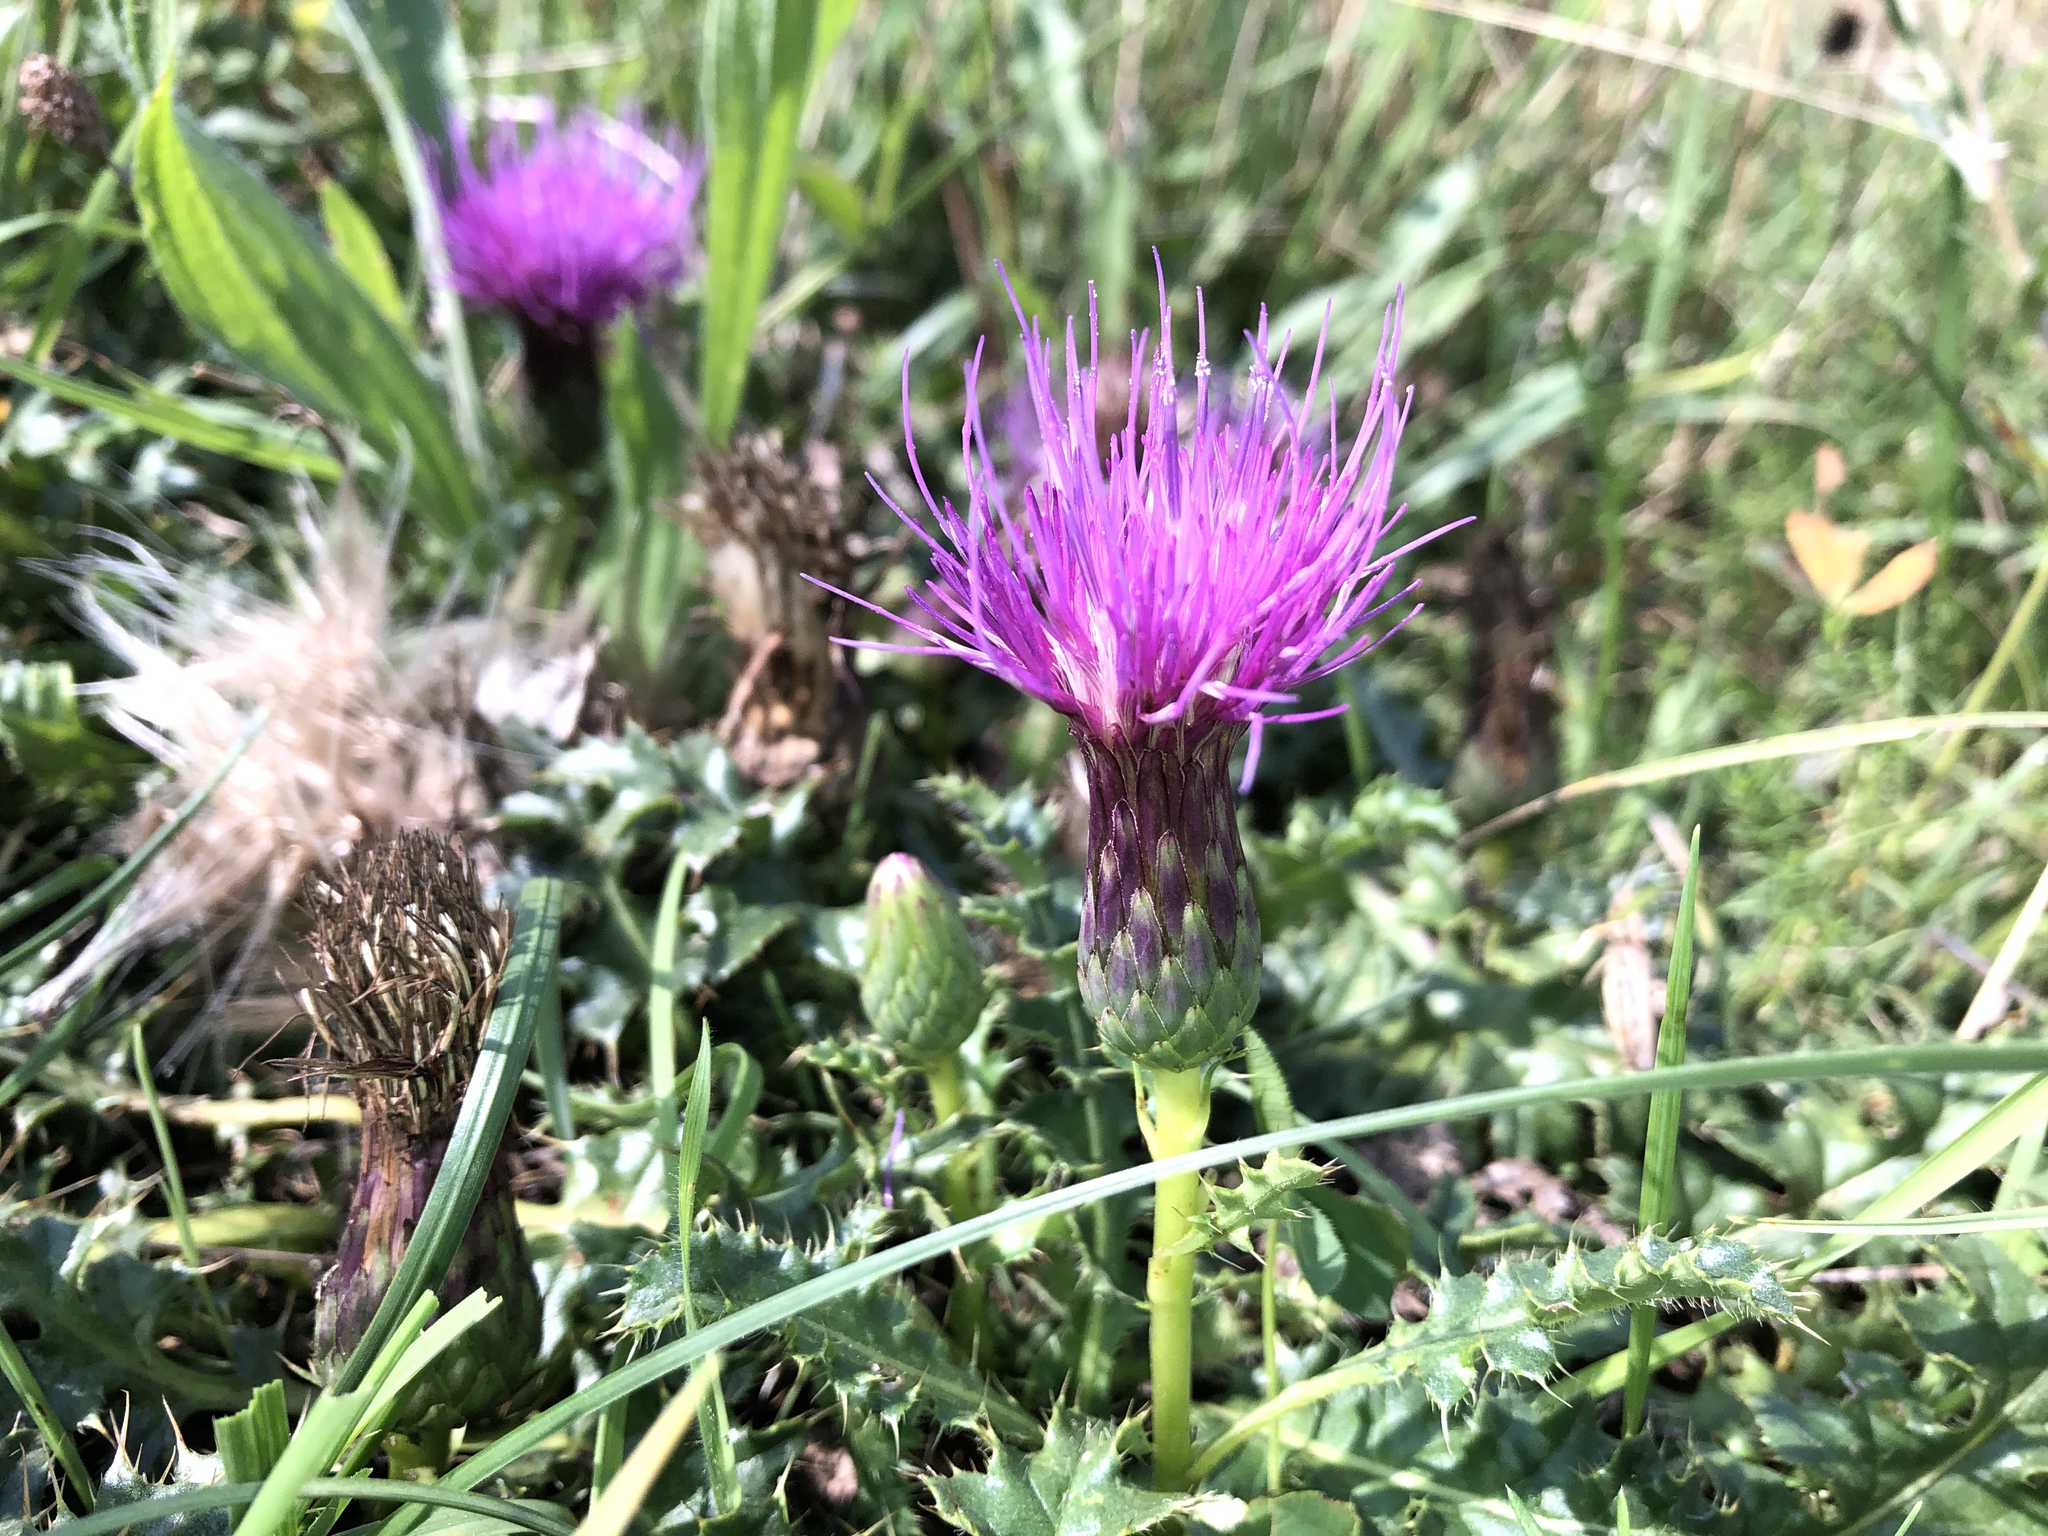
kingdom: Plantae
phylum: Tracheophyta
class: Magnoliopsida
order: Asterales
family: Asteraceae
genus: Cirsium
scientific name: Cirsium acaulon
